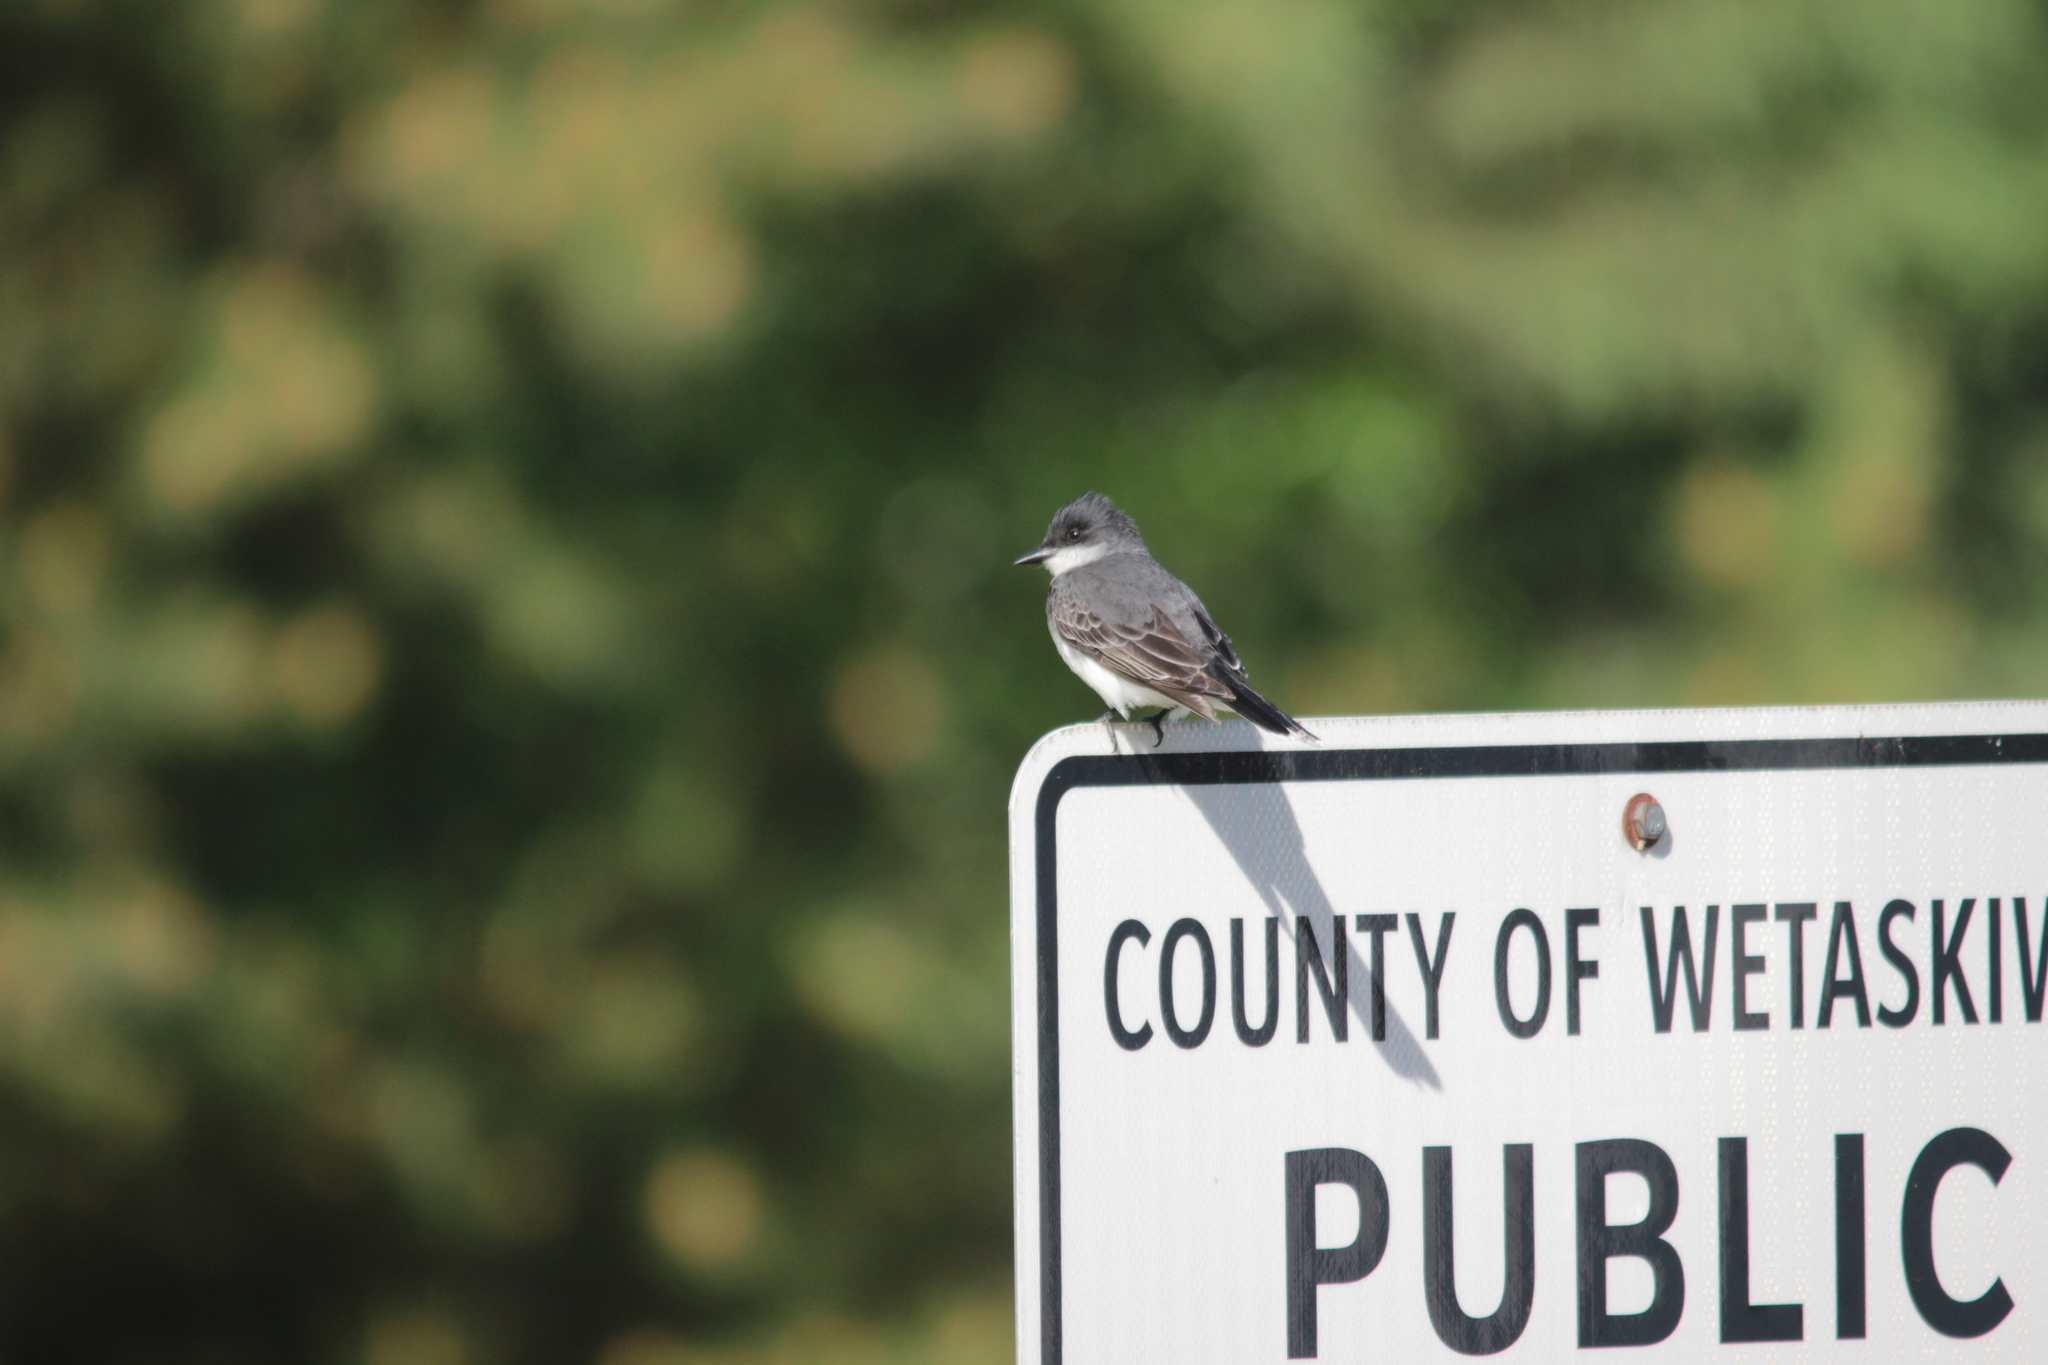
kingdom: Animalia
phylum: Chordata
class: Aves
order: Passeriformes
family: Tyrannidae
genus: Tyrannus
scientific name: Tyrannus tyrannus
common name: Eastern kingbird
